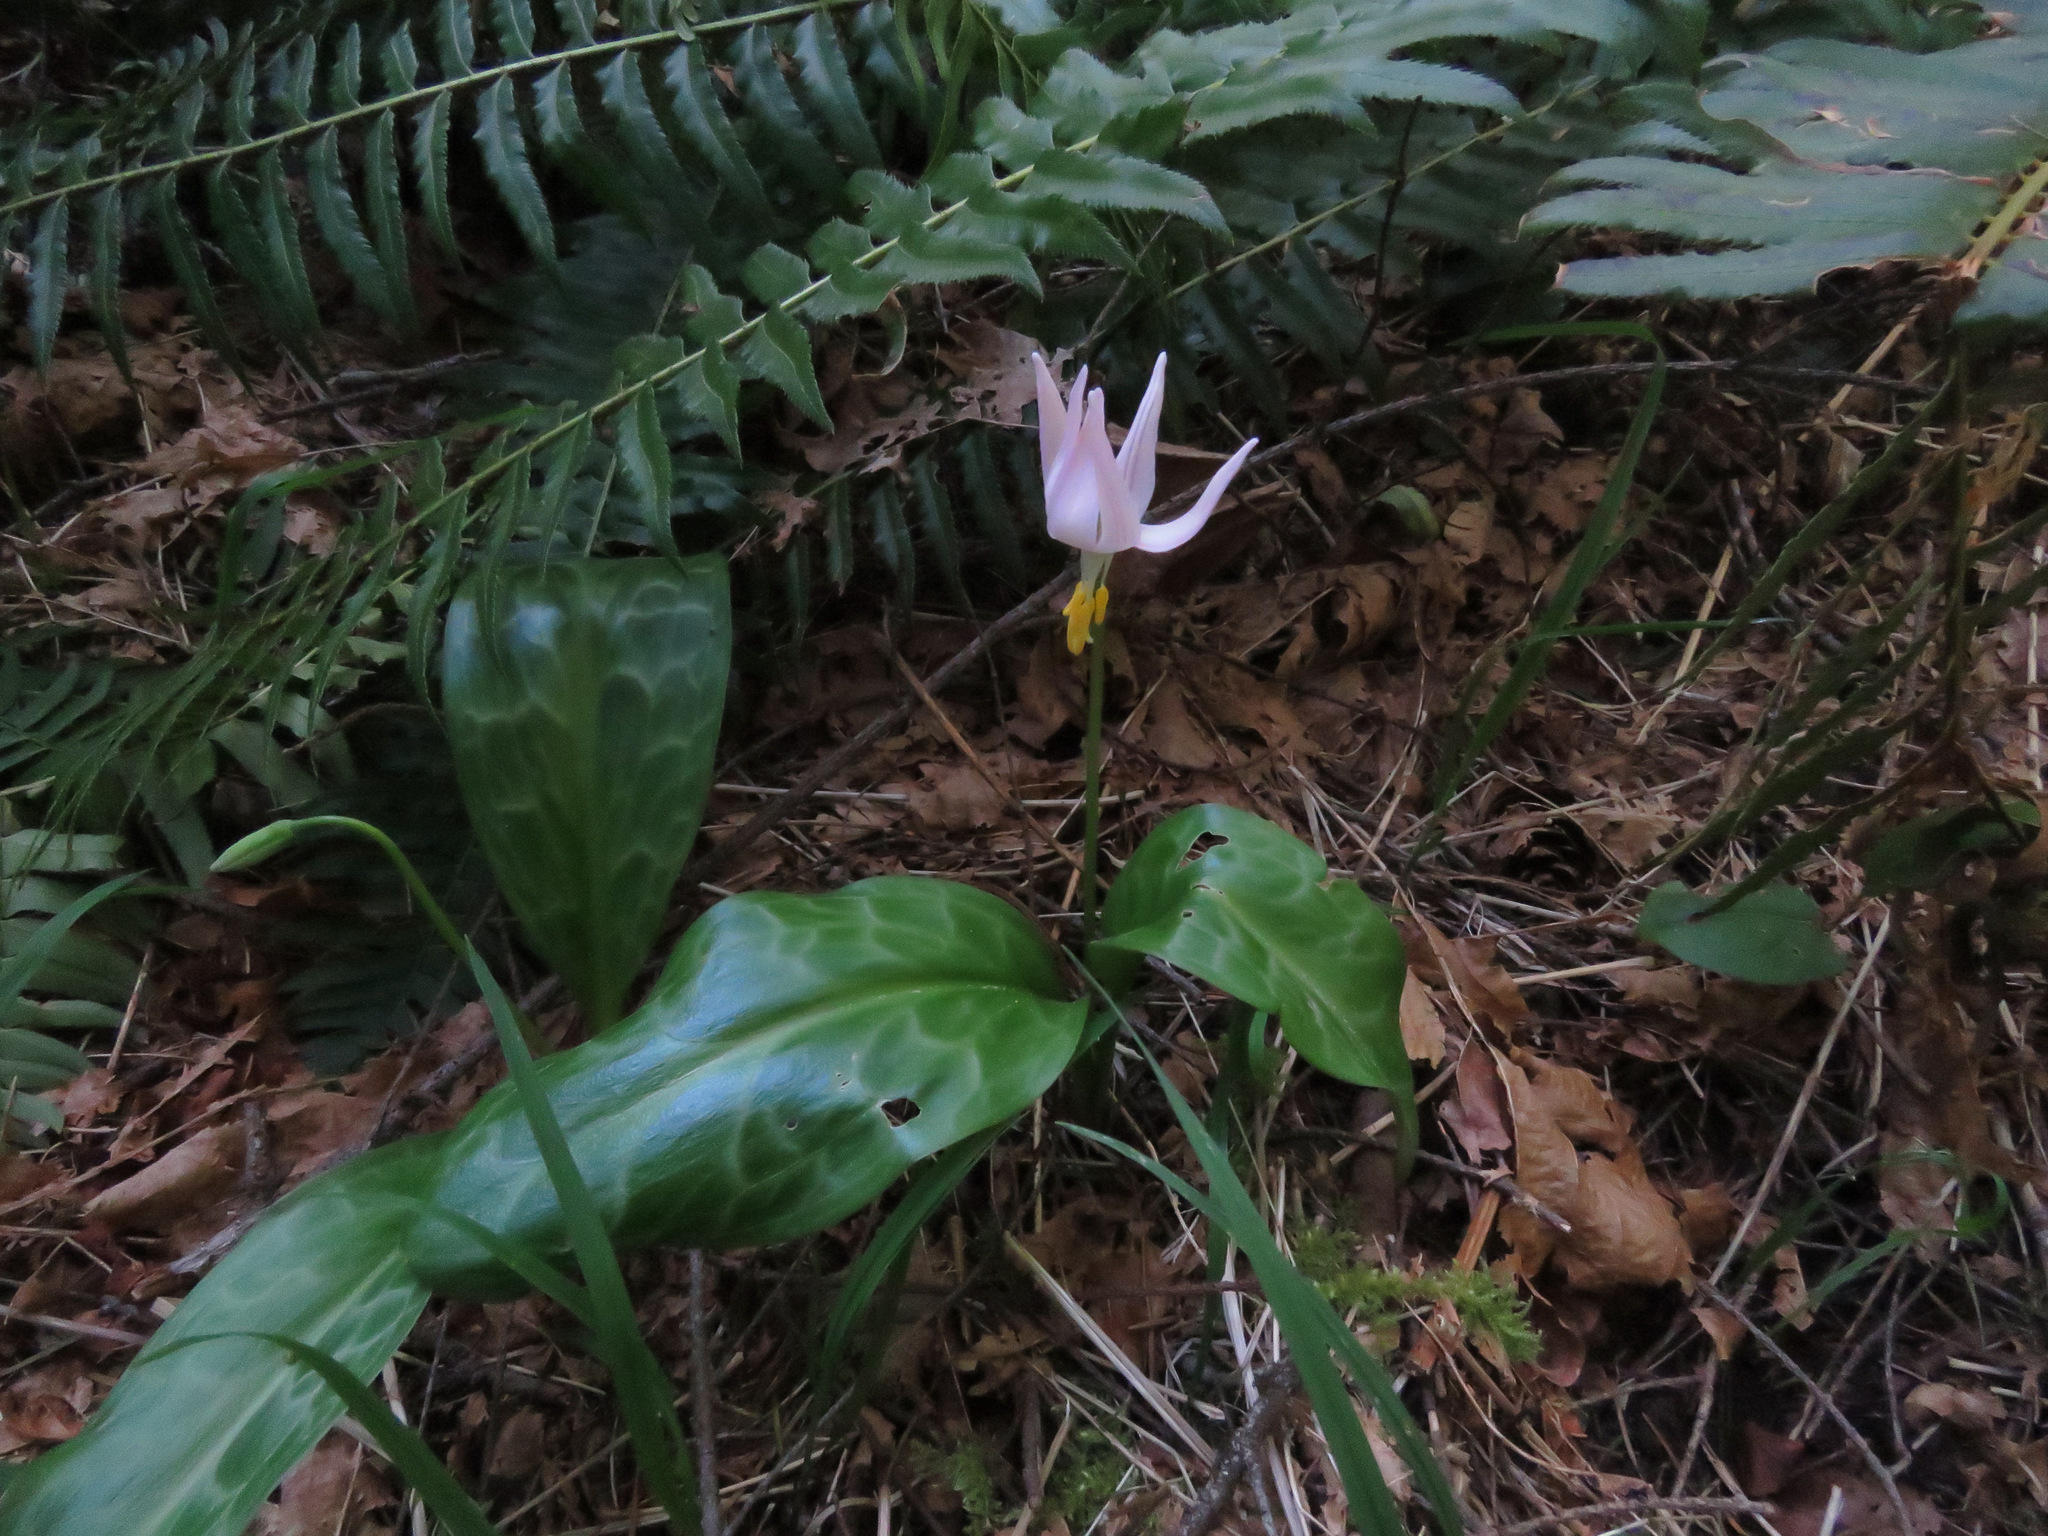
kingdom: Plantae
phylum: Tracheophyta
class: Liliopsida
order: Liliales
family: Liliaceae
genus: Erythronium
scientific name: Erythronium revolutum
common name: Pink fawn-lily
